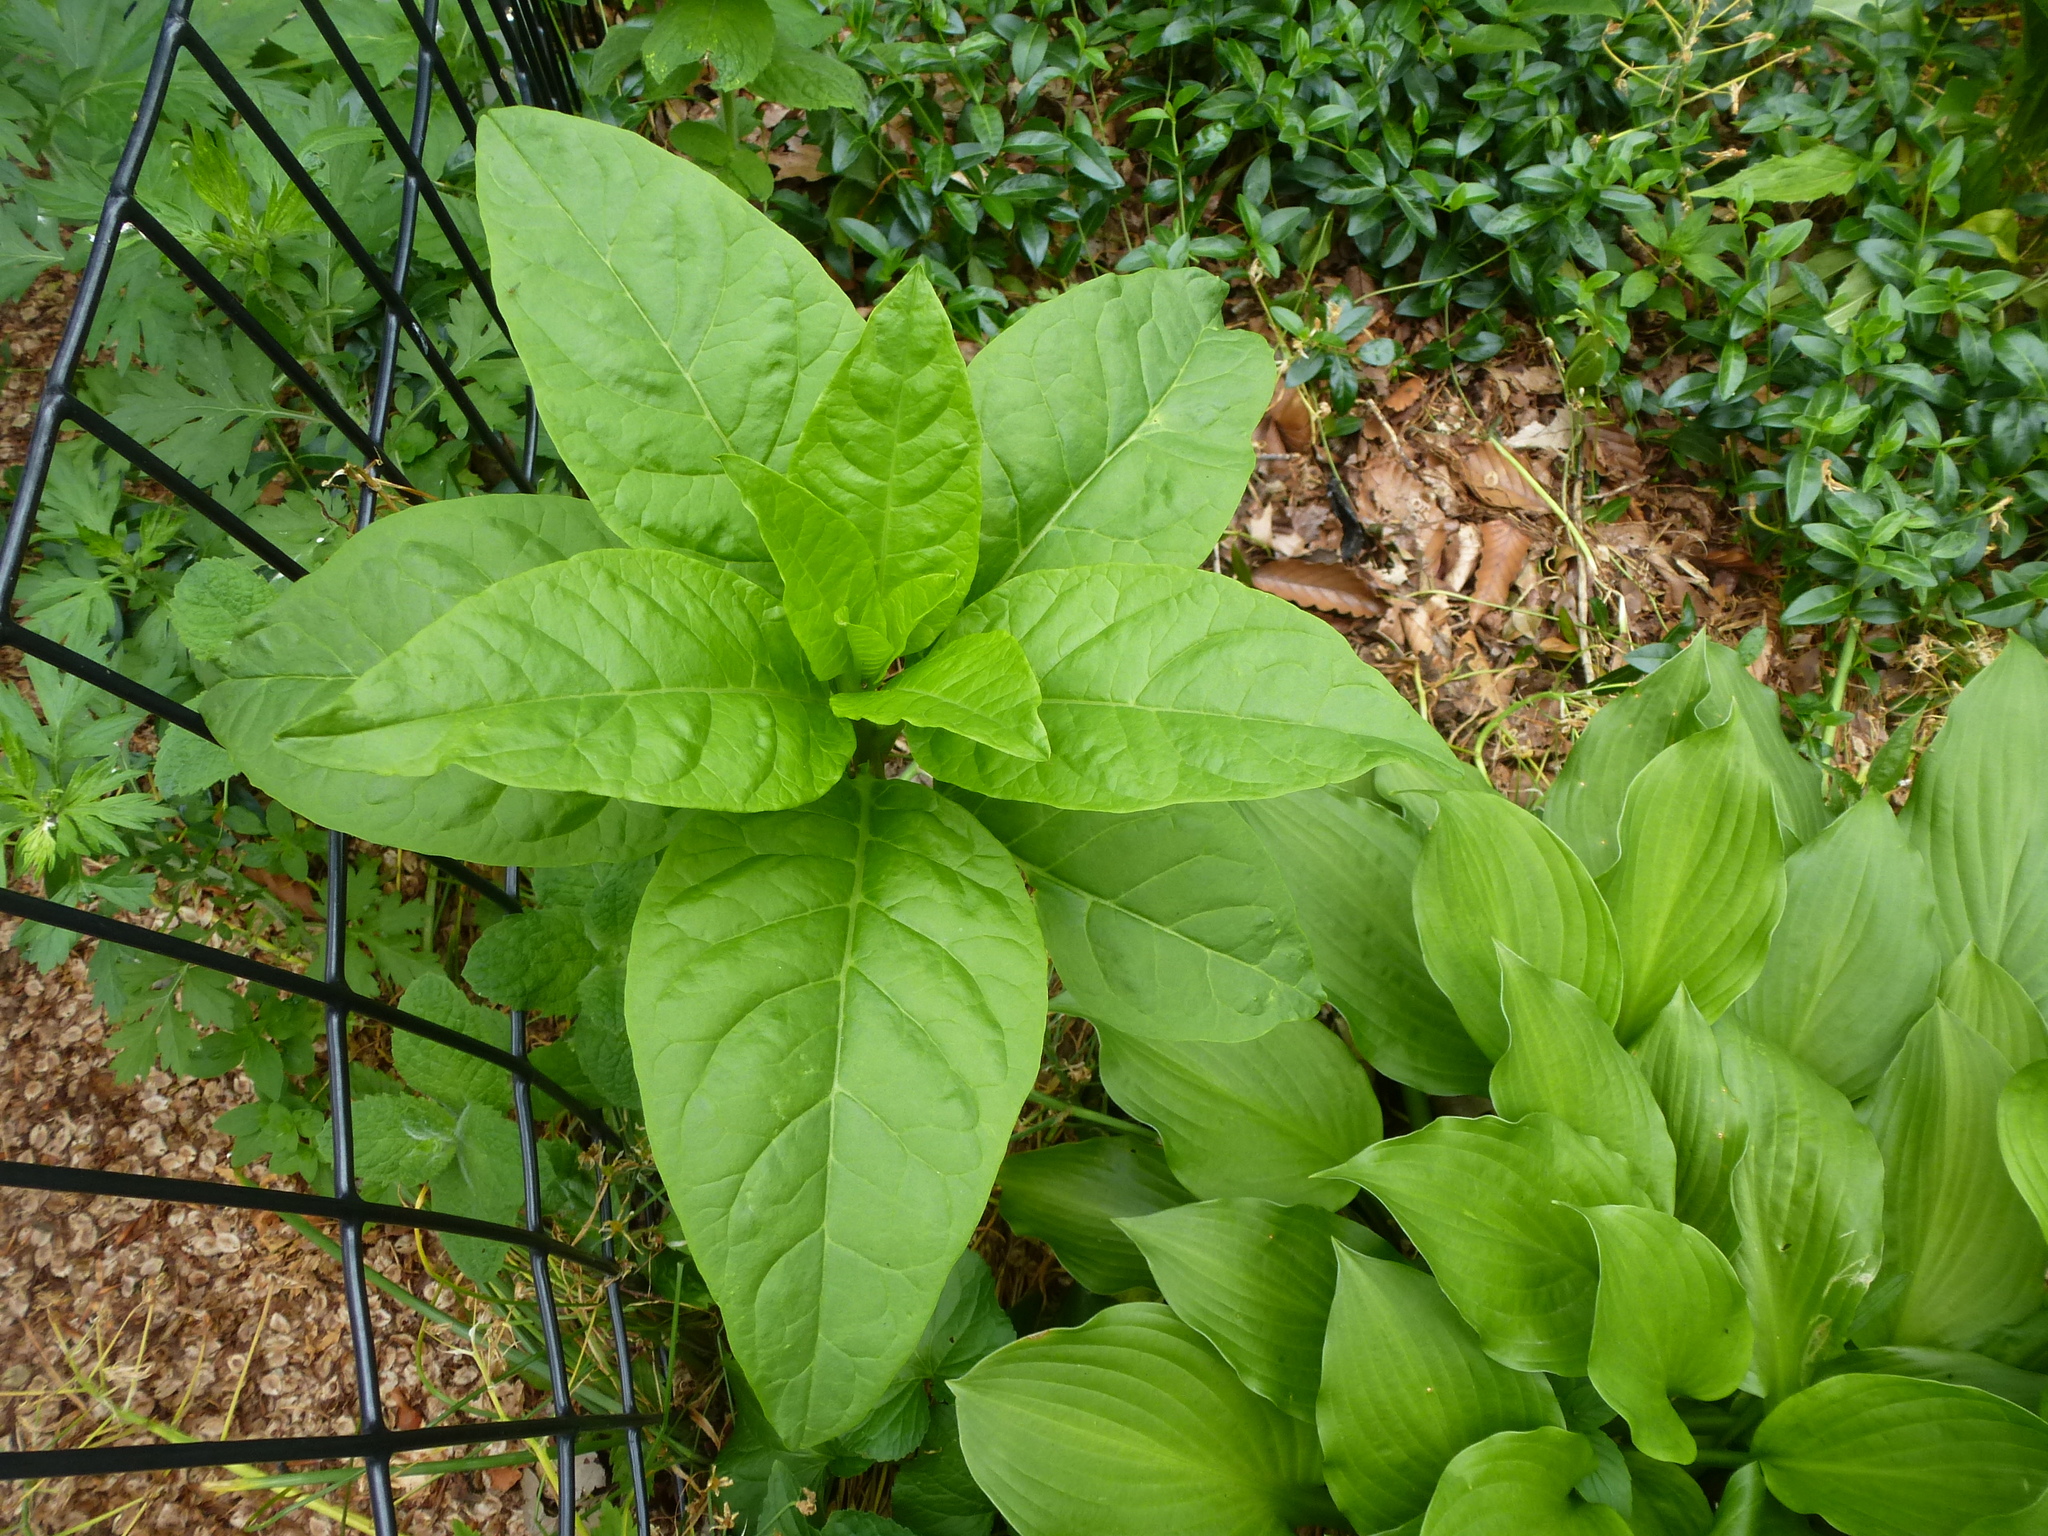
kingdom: Plantae
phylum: Tracheophyta
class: Magnoliopsida
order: Caryophyllales
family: Phytolaccaceae
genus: Phytolacca
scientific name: Phytolacca americana
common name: American pokeweed
